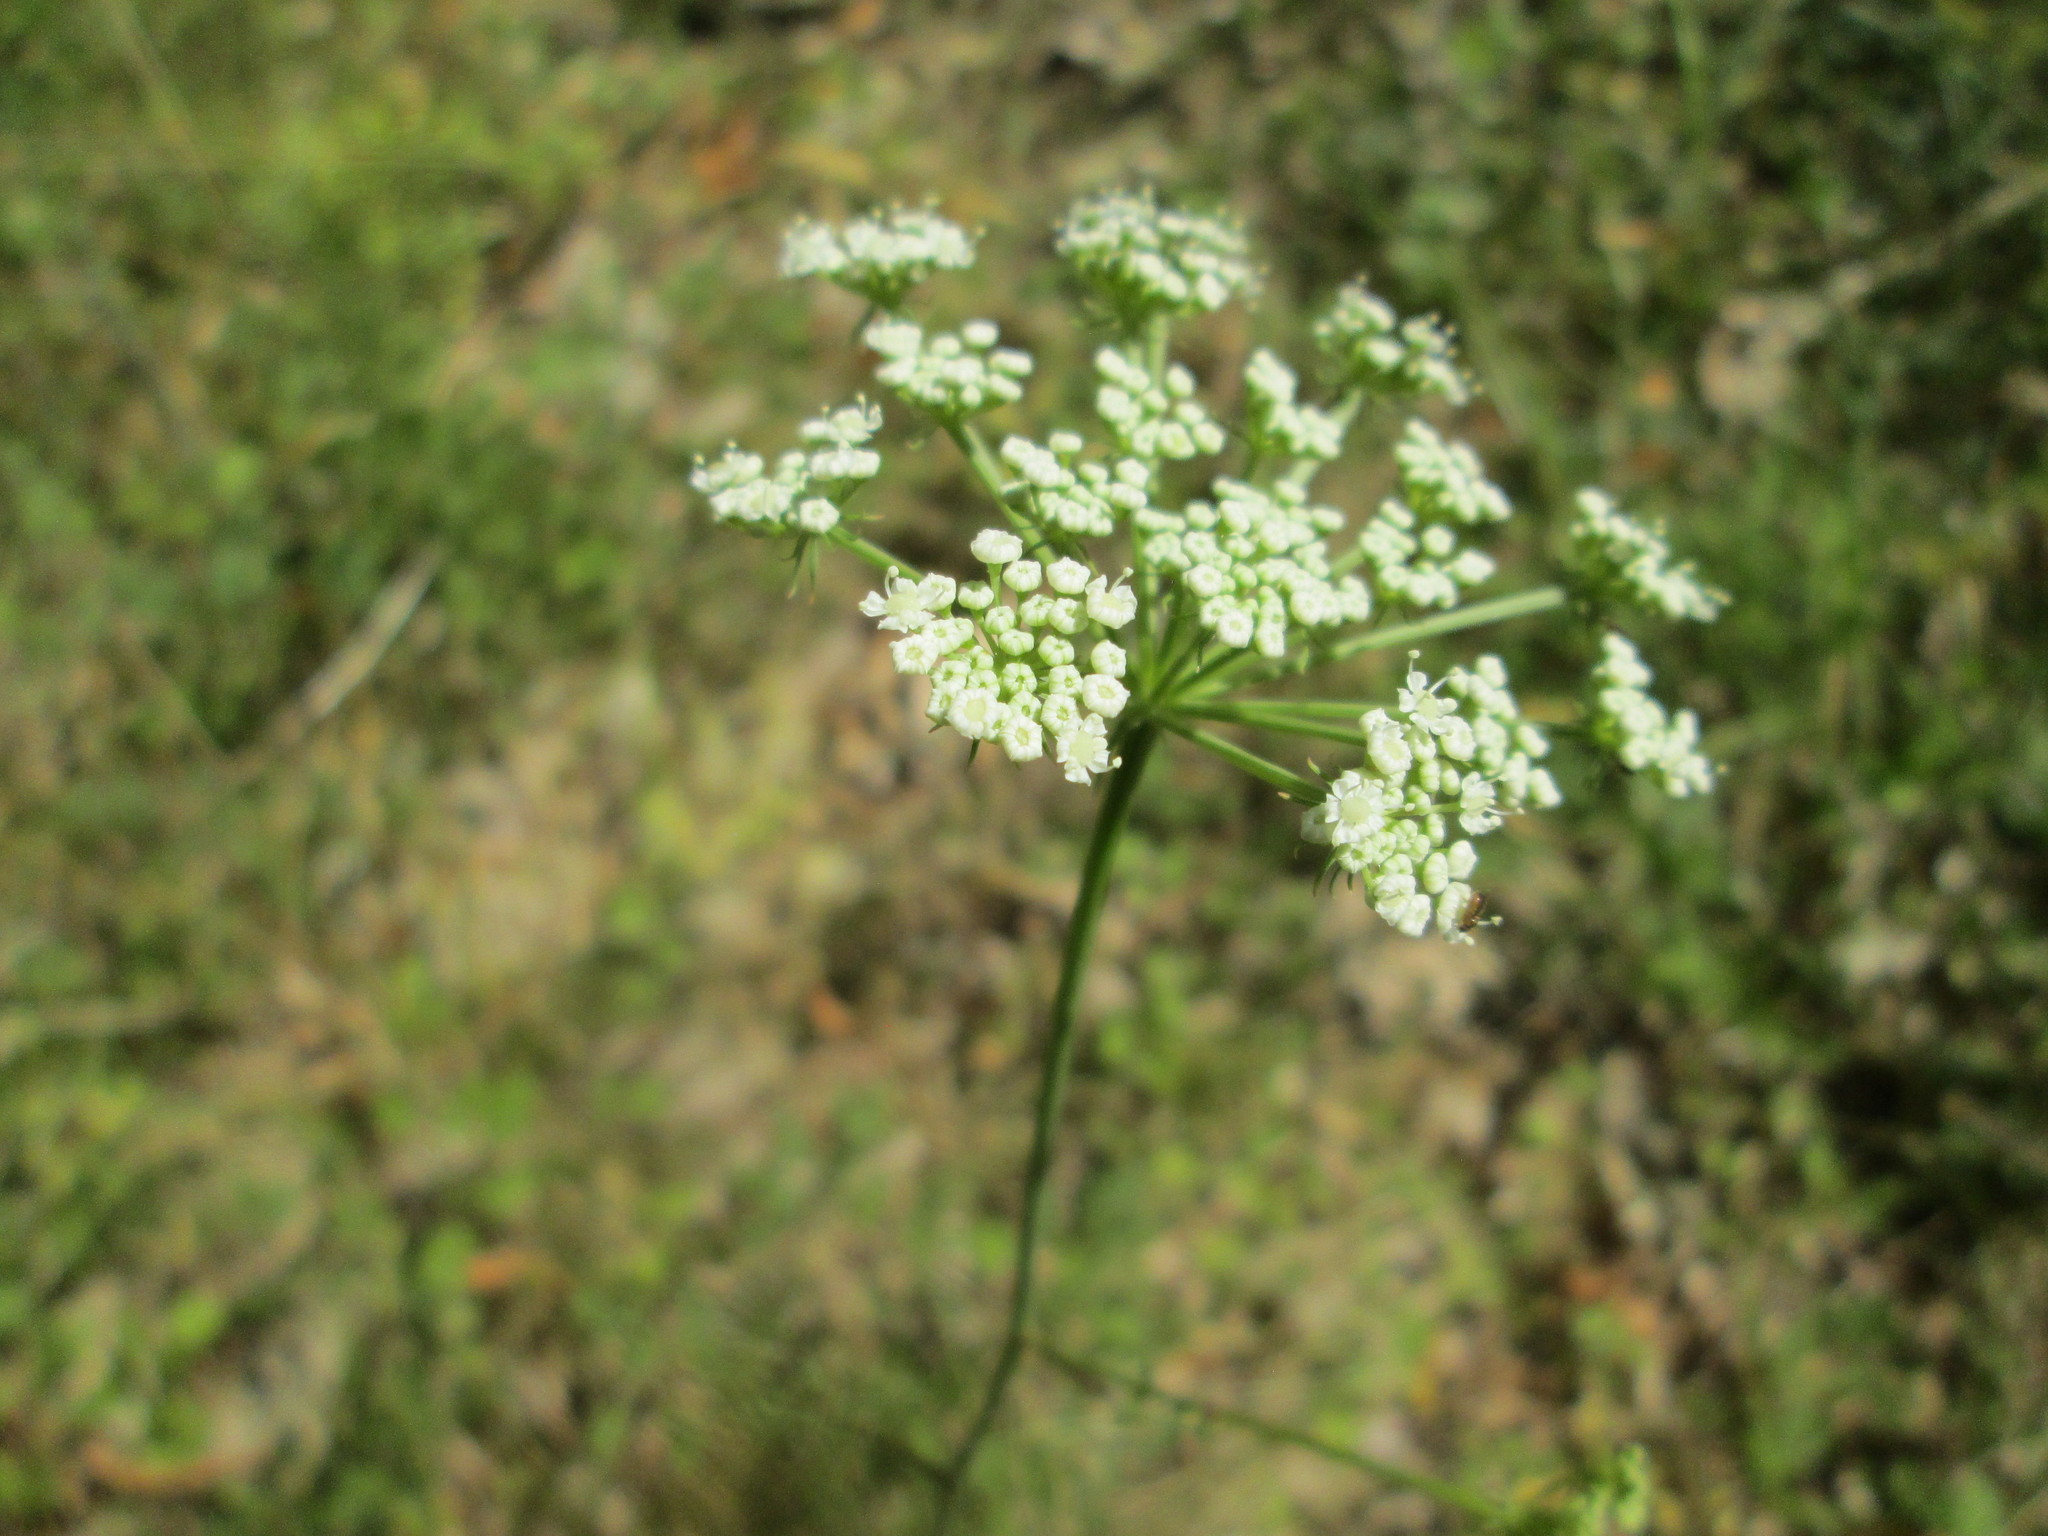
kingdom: Plantae
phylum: Tracheophyta
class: Magnoliopsida
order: Apiales
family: Apiaceae
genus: Oreoselinum
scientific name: Oreoselinum nigrum
